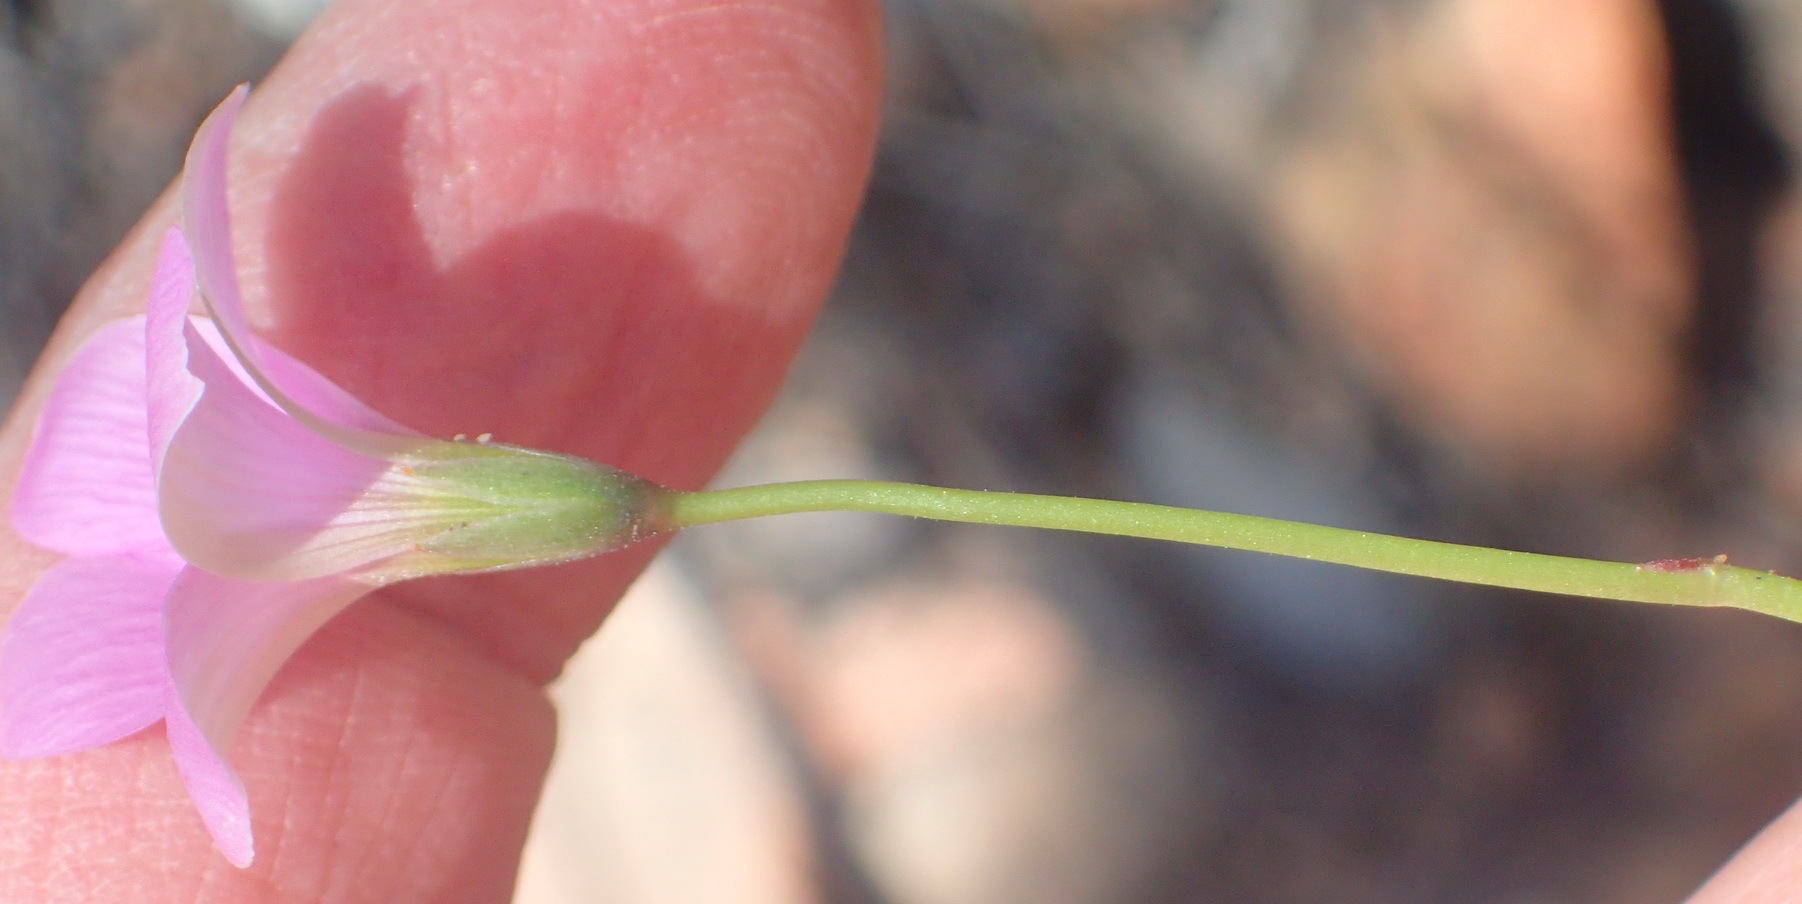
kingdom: Plantae
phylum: Tracheophyta
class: Magnoliopsida
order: Oxalidales
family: Oxalidaceae
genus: Oxalis
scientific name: Oxalis smithiana
